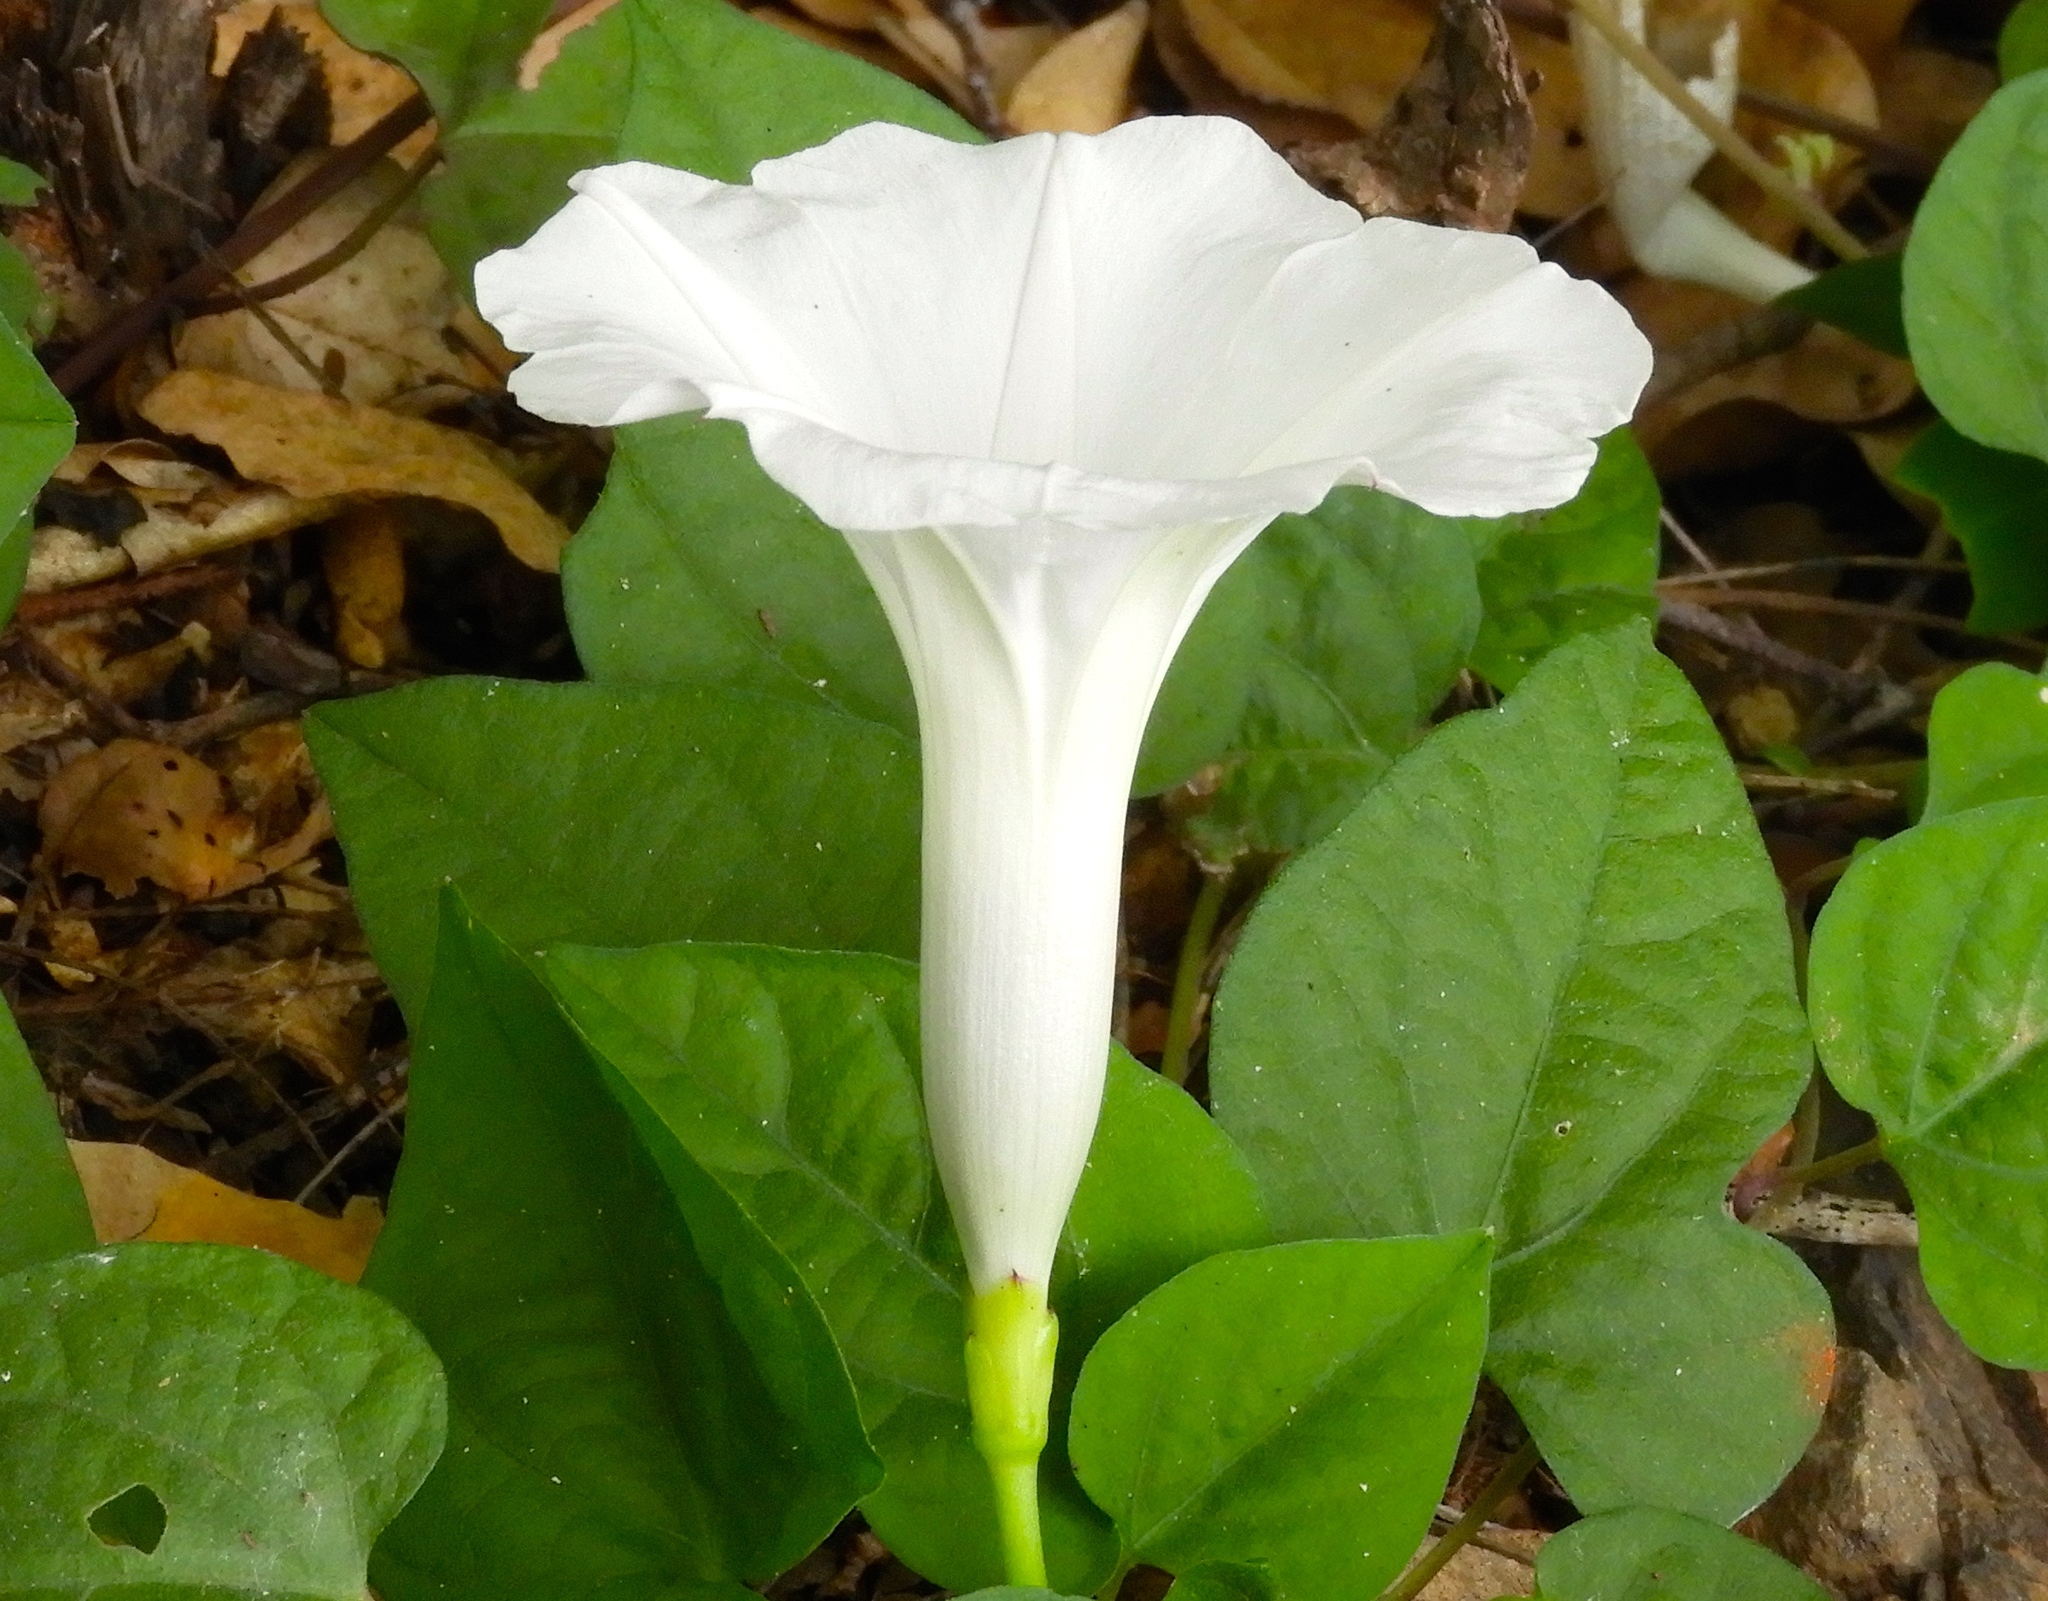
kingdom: Plantae
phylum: Tracheophyta
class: Magnoliopsida
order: Solanales
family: Convolvulaceae
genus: Ipomoea
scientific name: Ipomoea scopulorum
